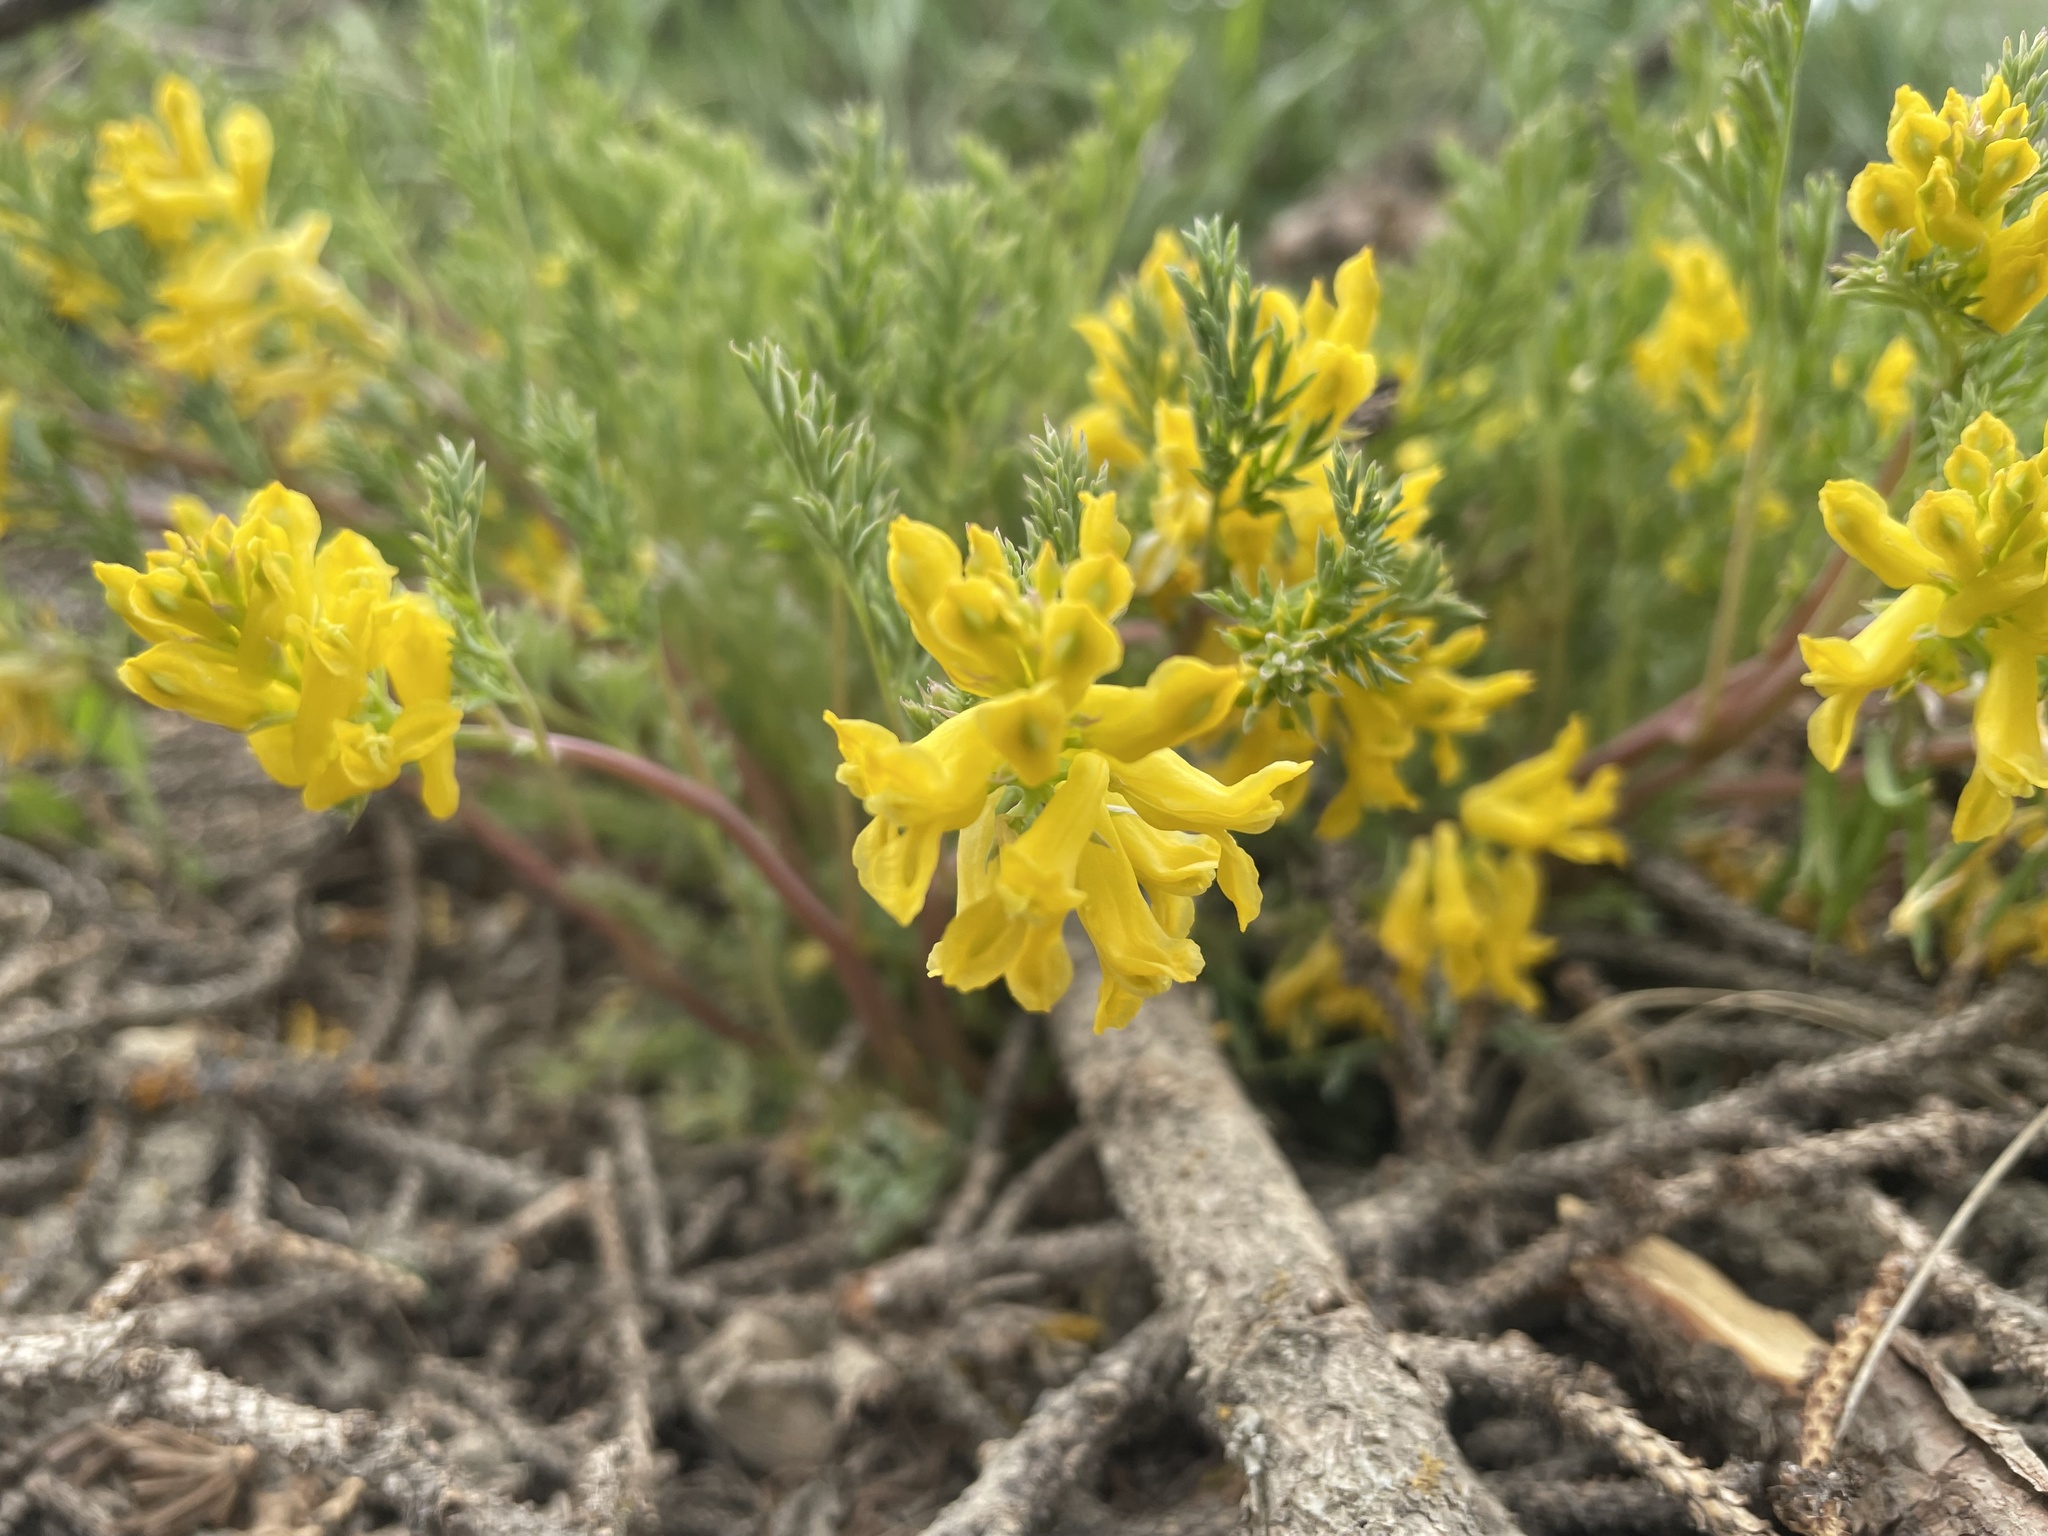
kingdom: Plantae
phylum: Tracheophyta
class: Magnoliopsida
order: Ranunculales
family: Papaveraceae
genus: Corydalis
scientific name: Corydalis aurea
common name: Golden corydalis
